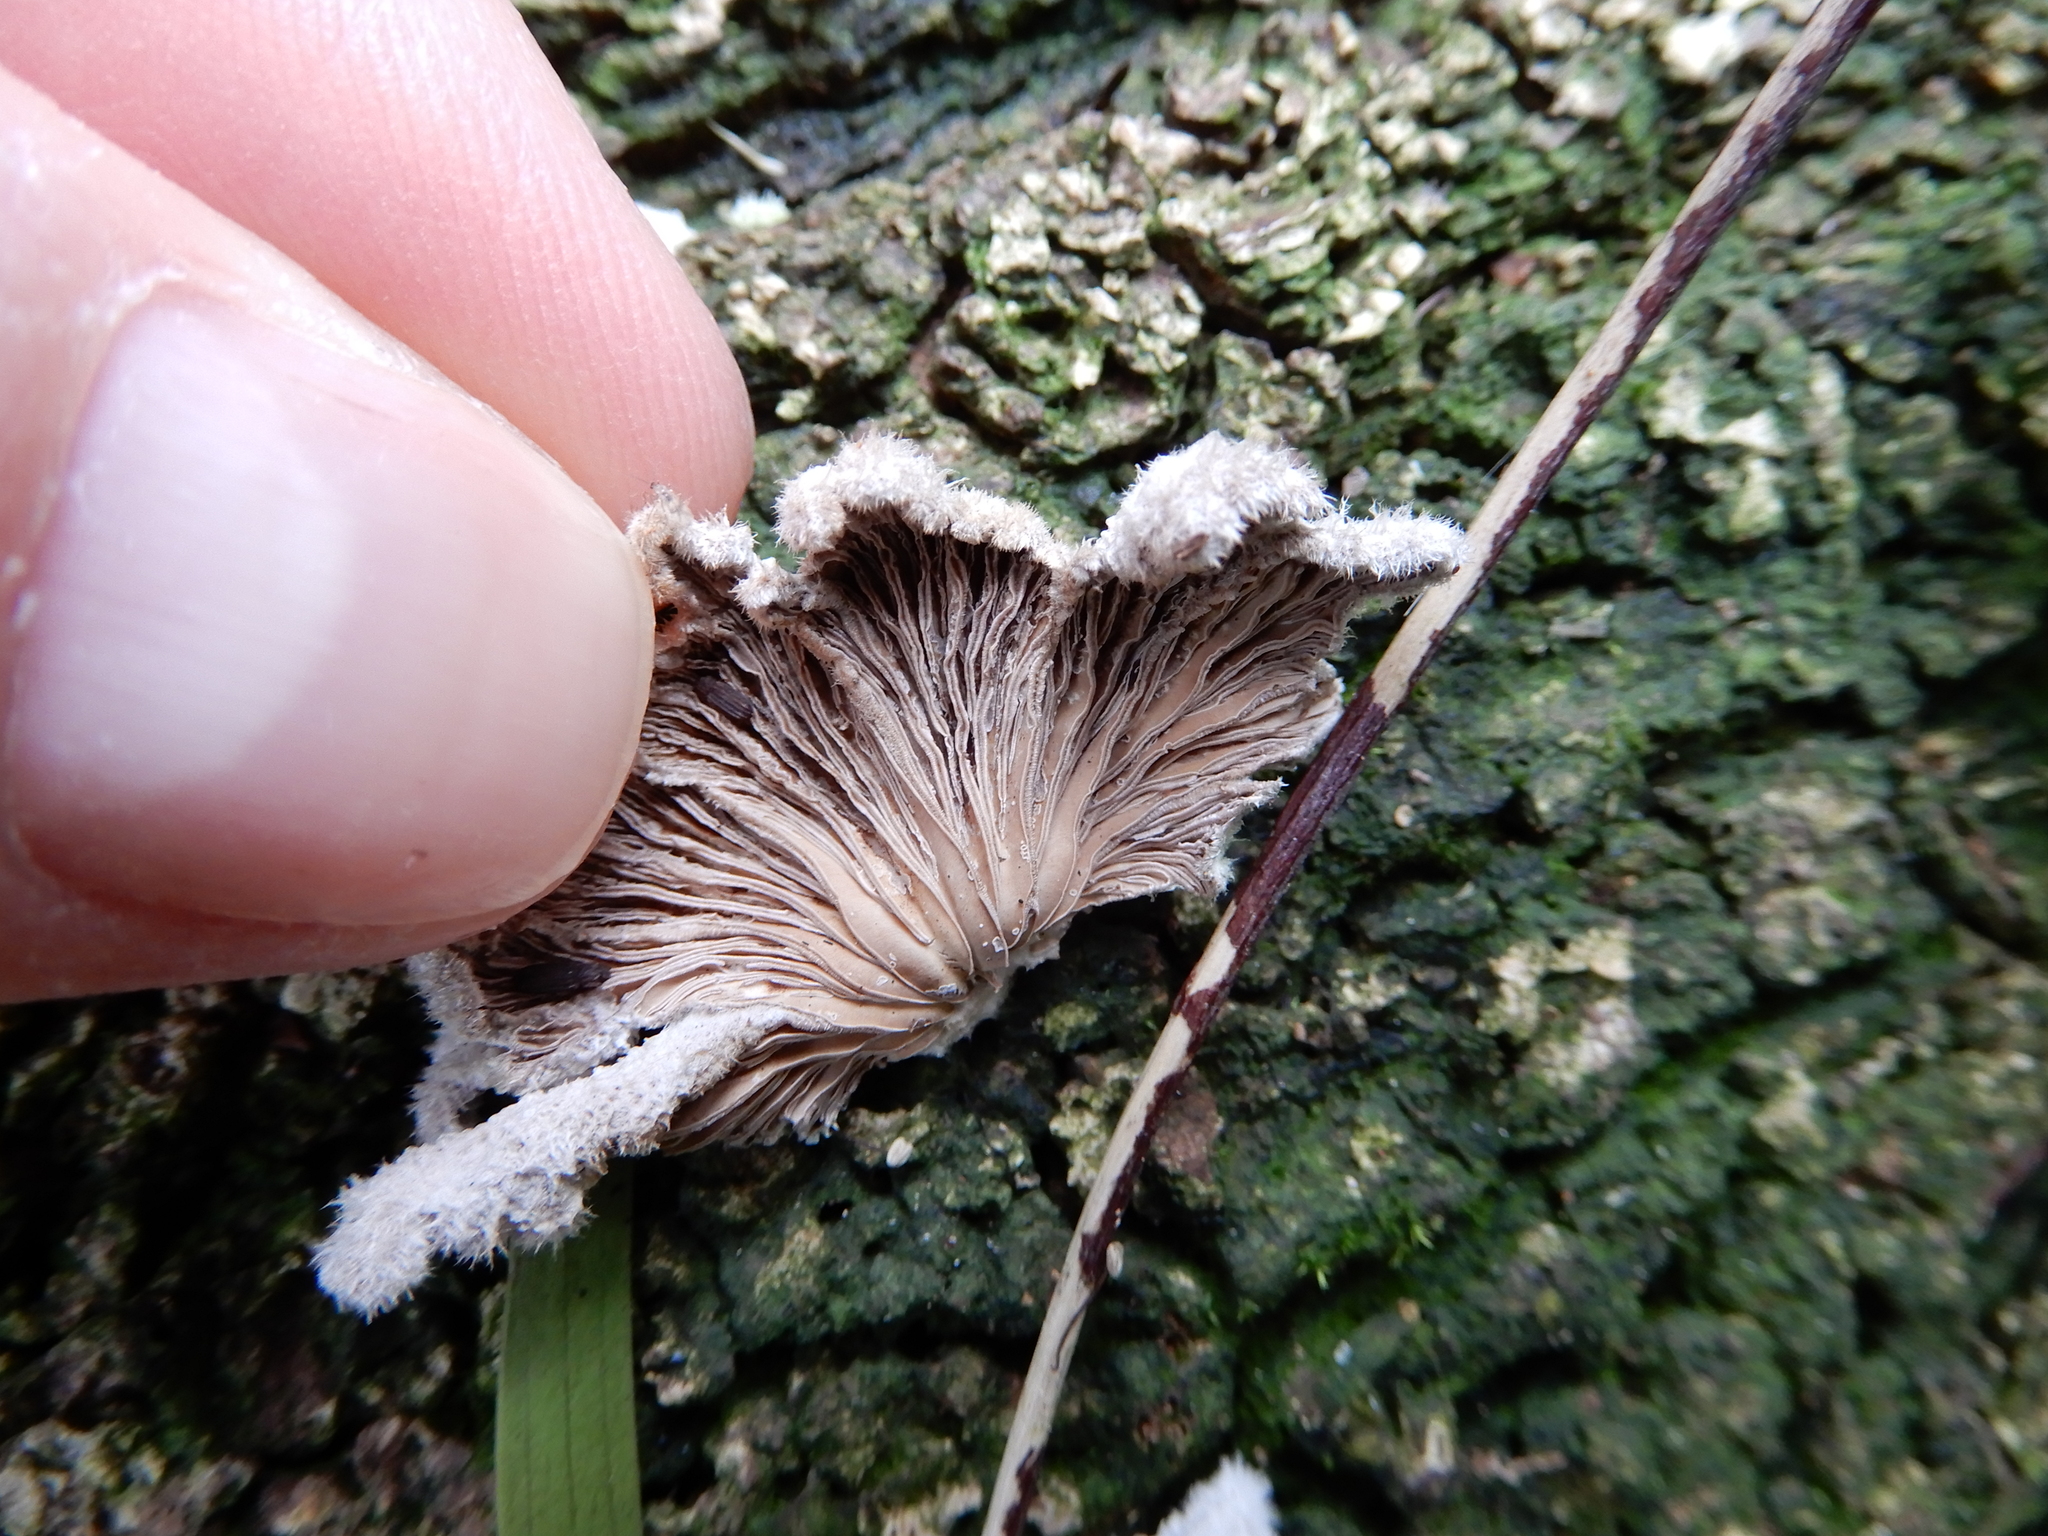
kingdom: Fungi
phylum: Basidiomycota
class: Agaricomycetes
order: Agaricales
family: Schizophyllaceae
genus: Schizophyllum
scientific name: Schizophyllum commune
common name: Common porecrust
